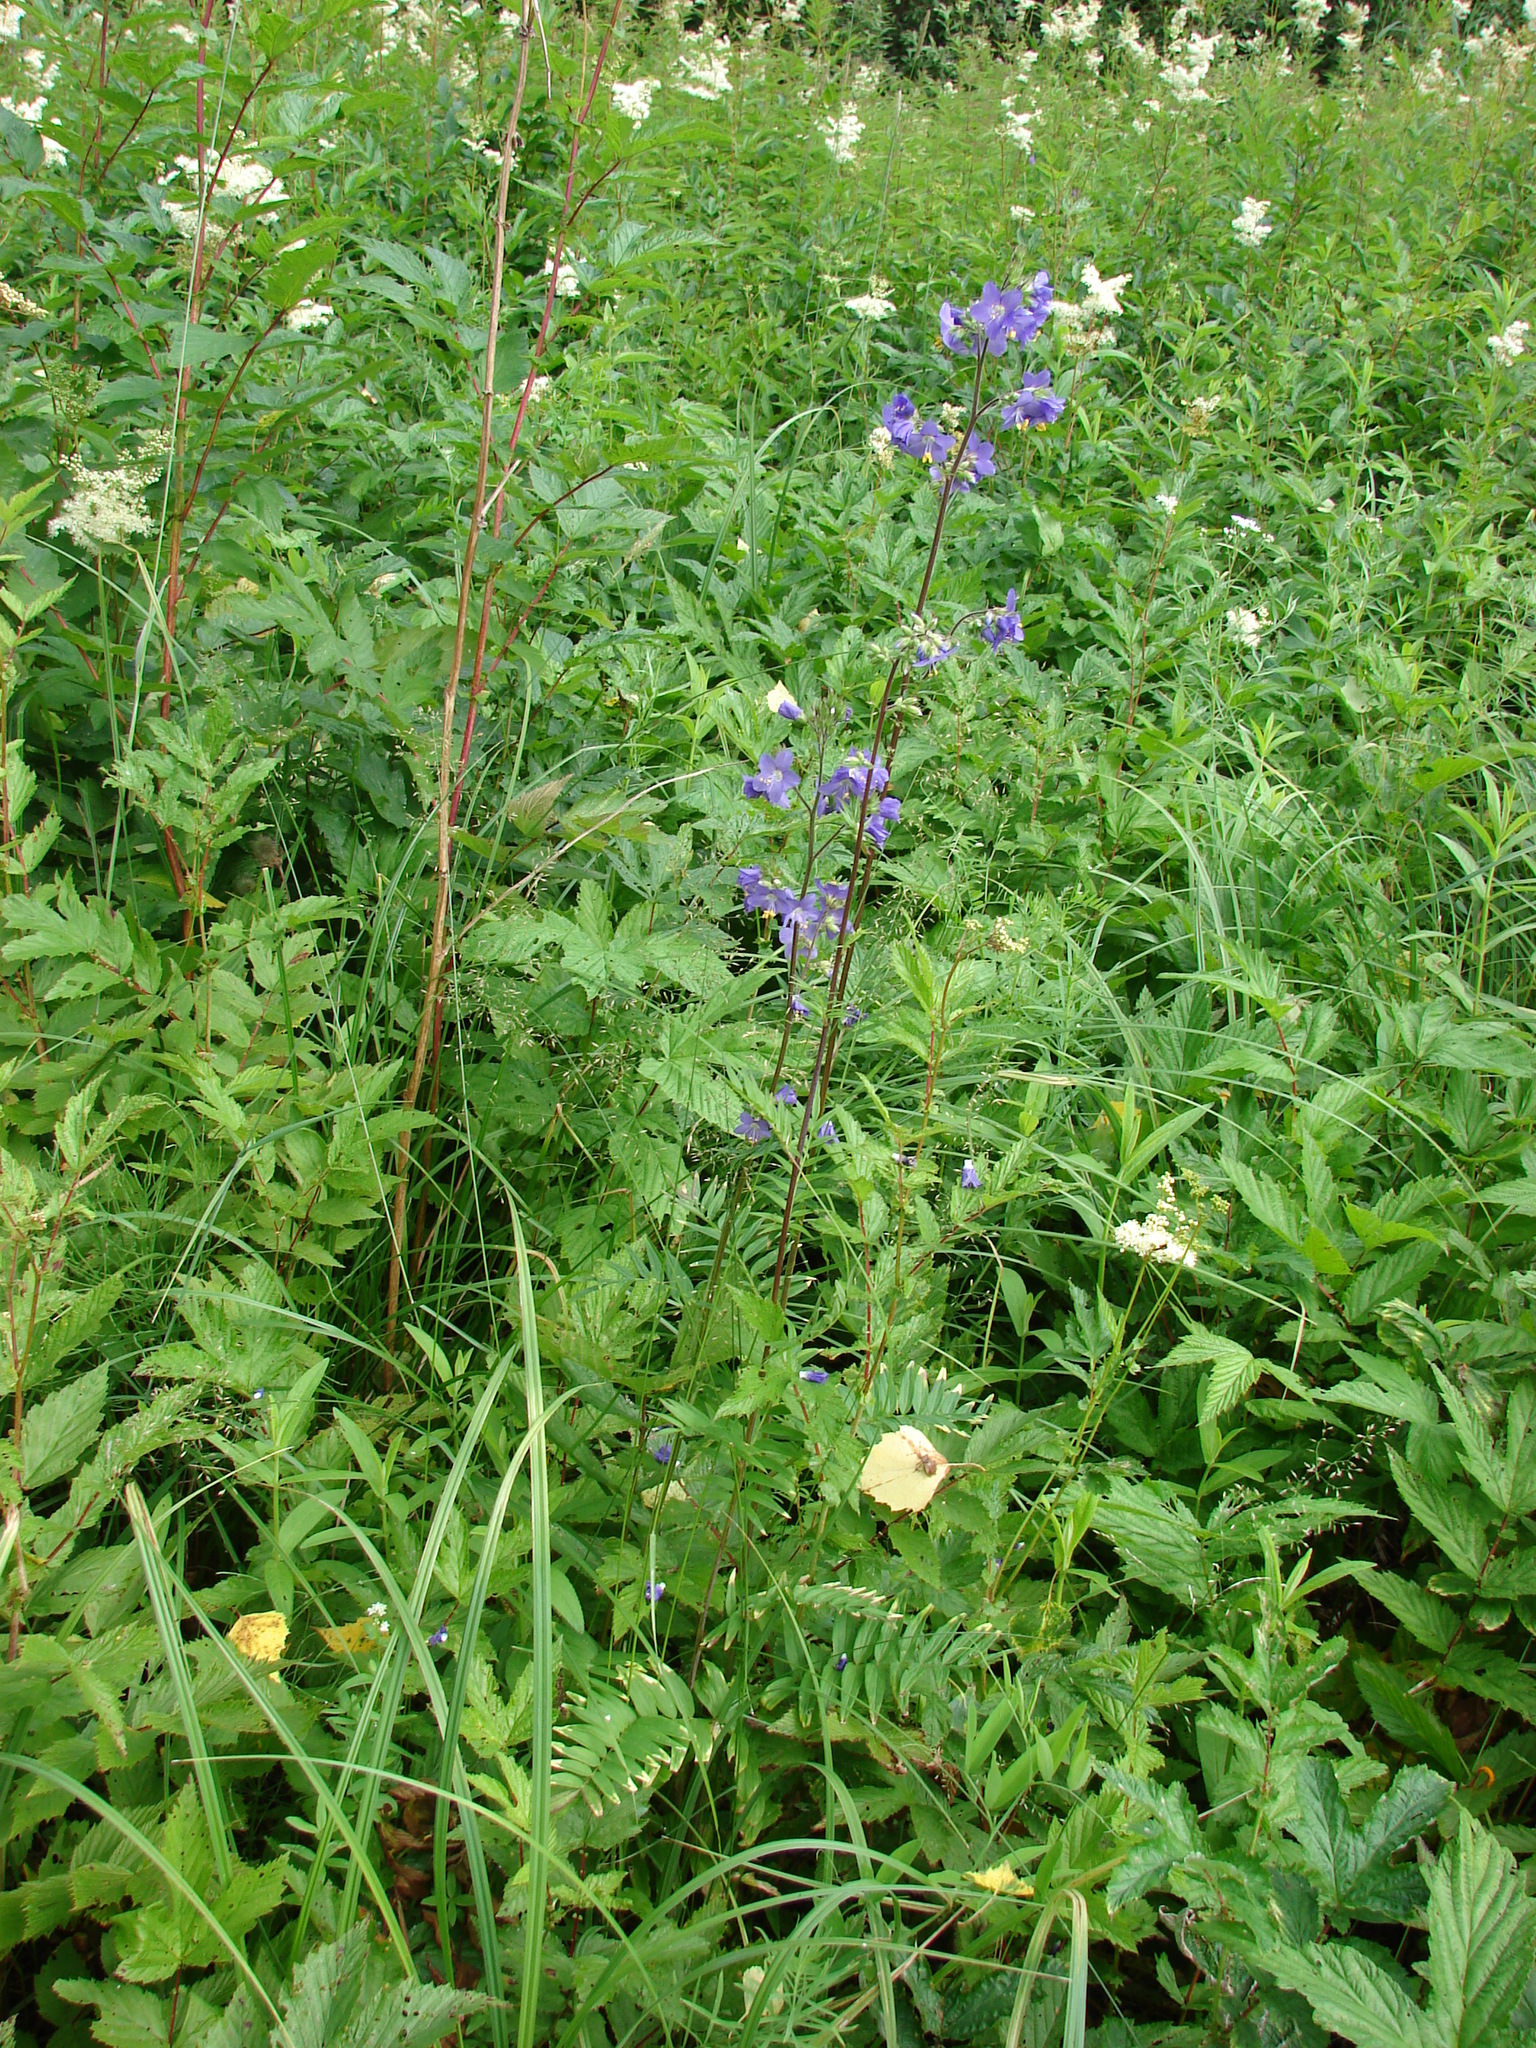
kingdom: Plantae
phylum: Tracheophyta
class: Magnoliopsida
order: Ericales
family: Polemoniaceae
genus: Polemonium
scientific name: Polemonium caeruleum
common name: Jacob's-ladder
